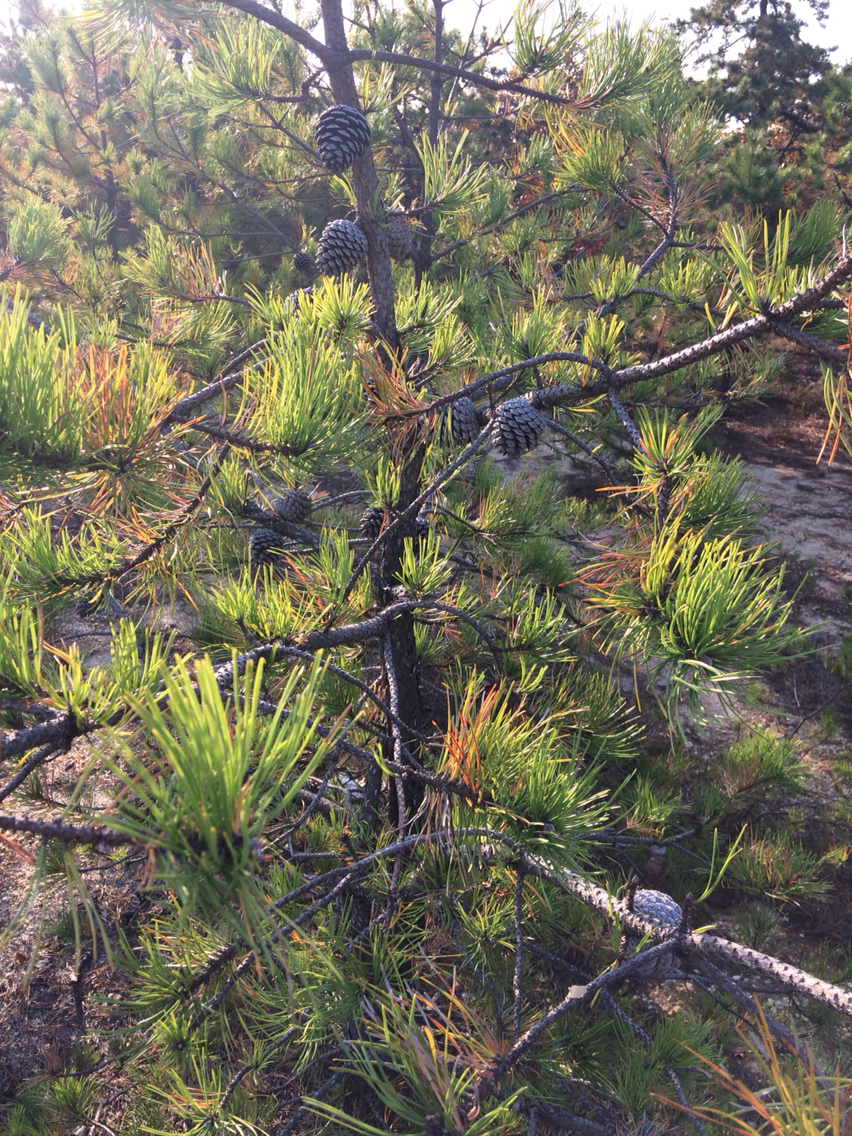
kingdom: Plantae
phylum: Tracheophyta
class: Pinopsida
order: Pinales
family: Pinaceae
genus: Pinus
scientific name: Pinus rigida
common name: Pitch pine
